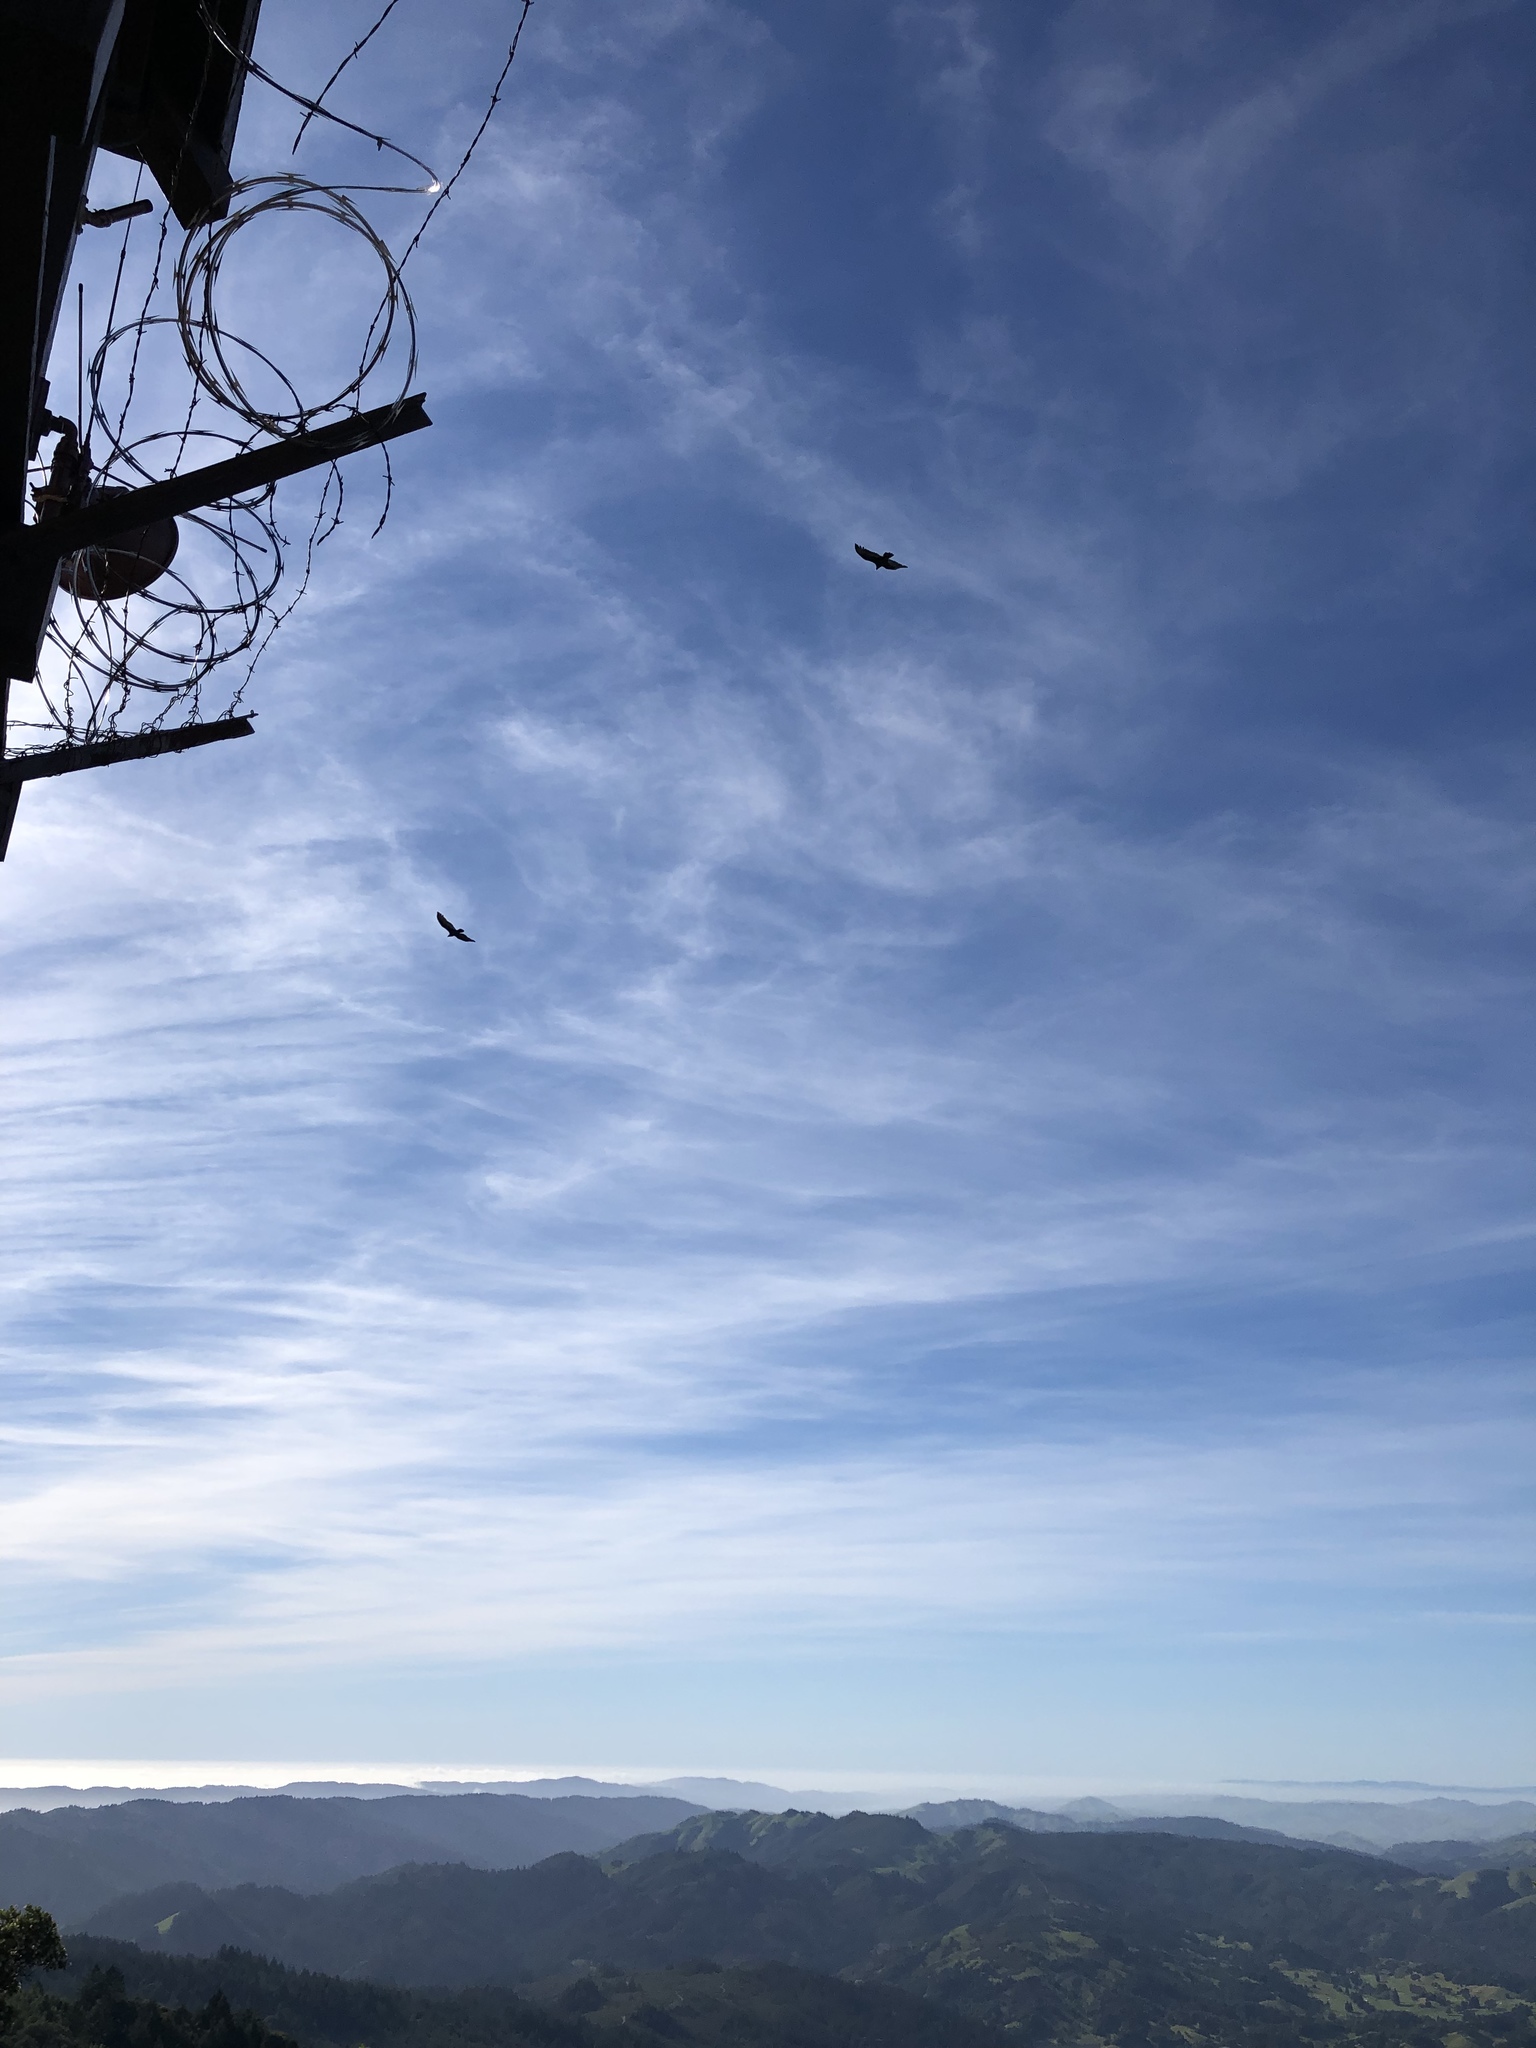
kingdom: Animalia
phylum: Chordata
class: Aves
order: Accipitriformes
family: Cathartidae
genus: Cathartes
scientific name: Cathartes aura
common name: Turkey vulture
